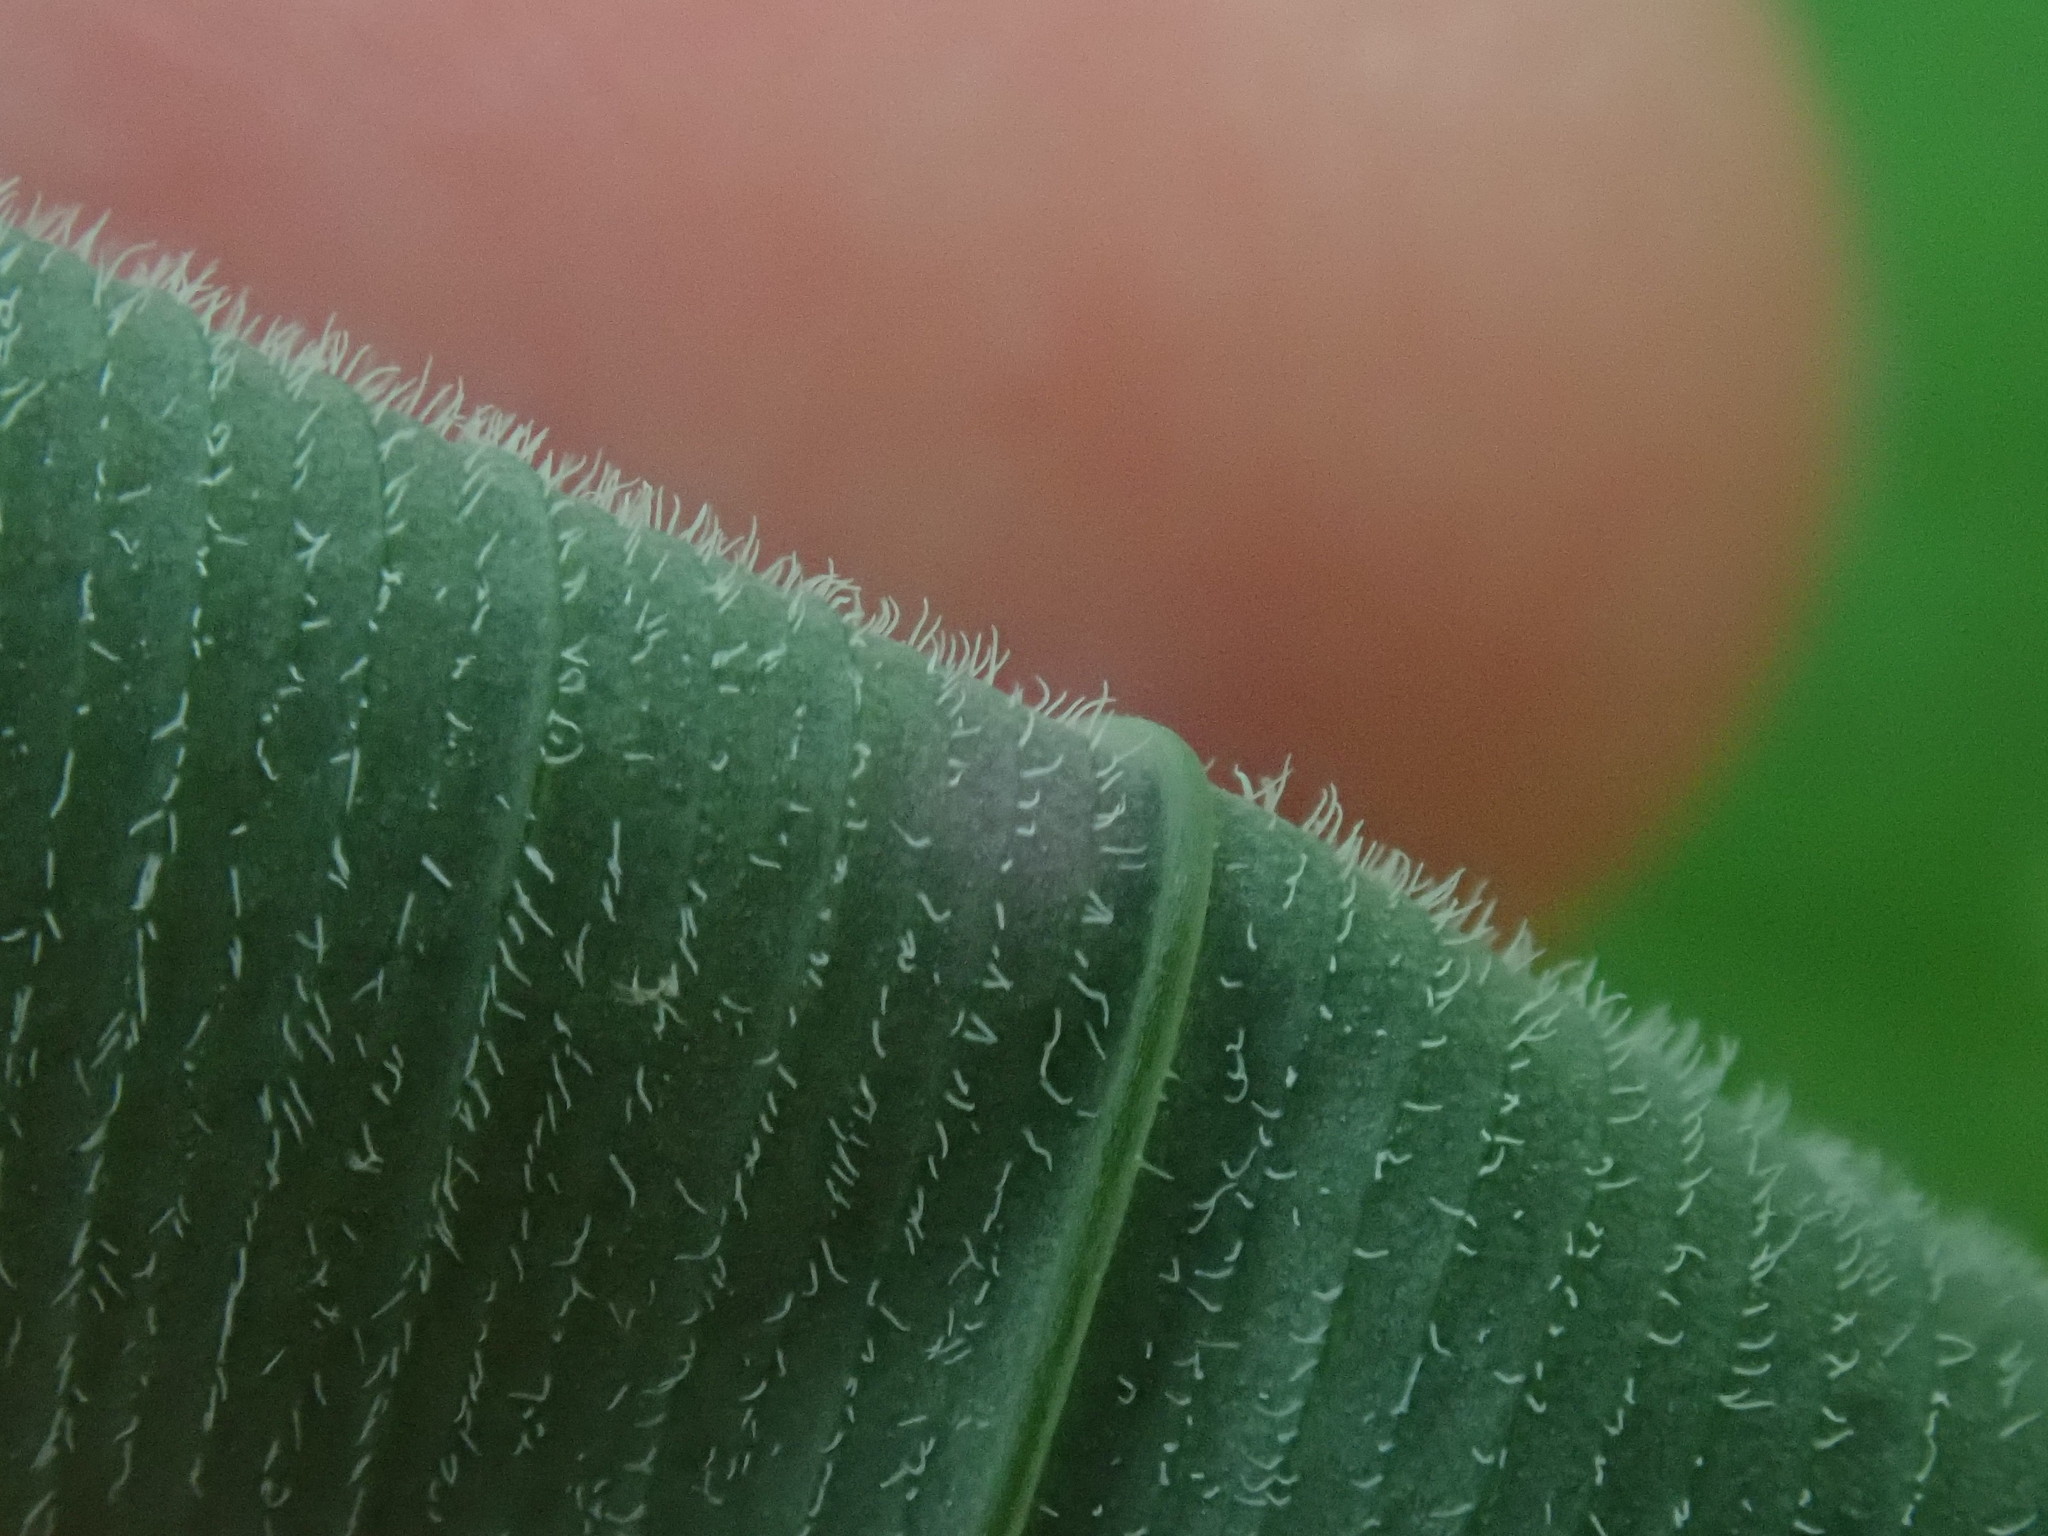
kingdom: Plantae
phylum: Tracheophyta
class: Liliopsida
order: Asparagales
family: Asparagaceae
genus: Polygonatum
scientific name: Polygonatum pubescens
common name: Downy solomon's seal
